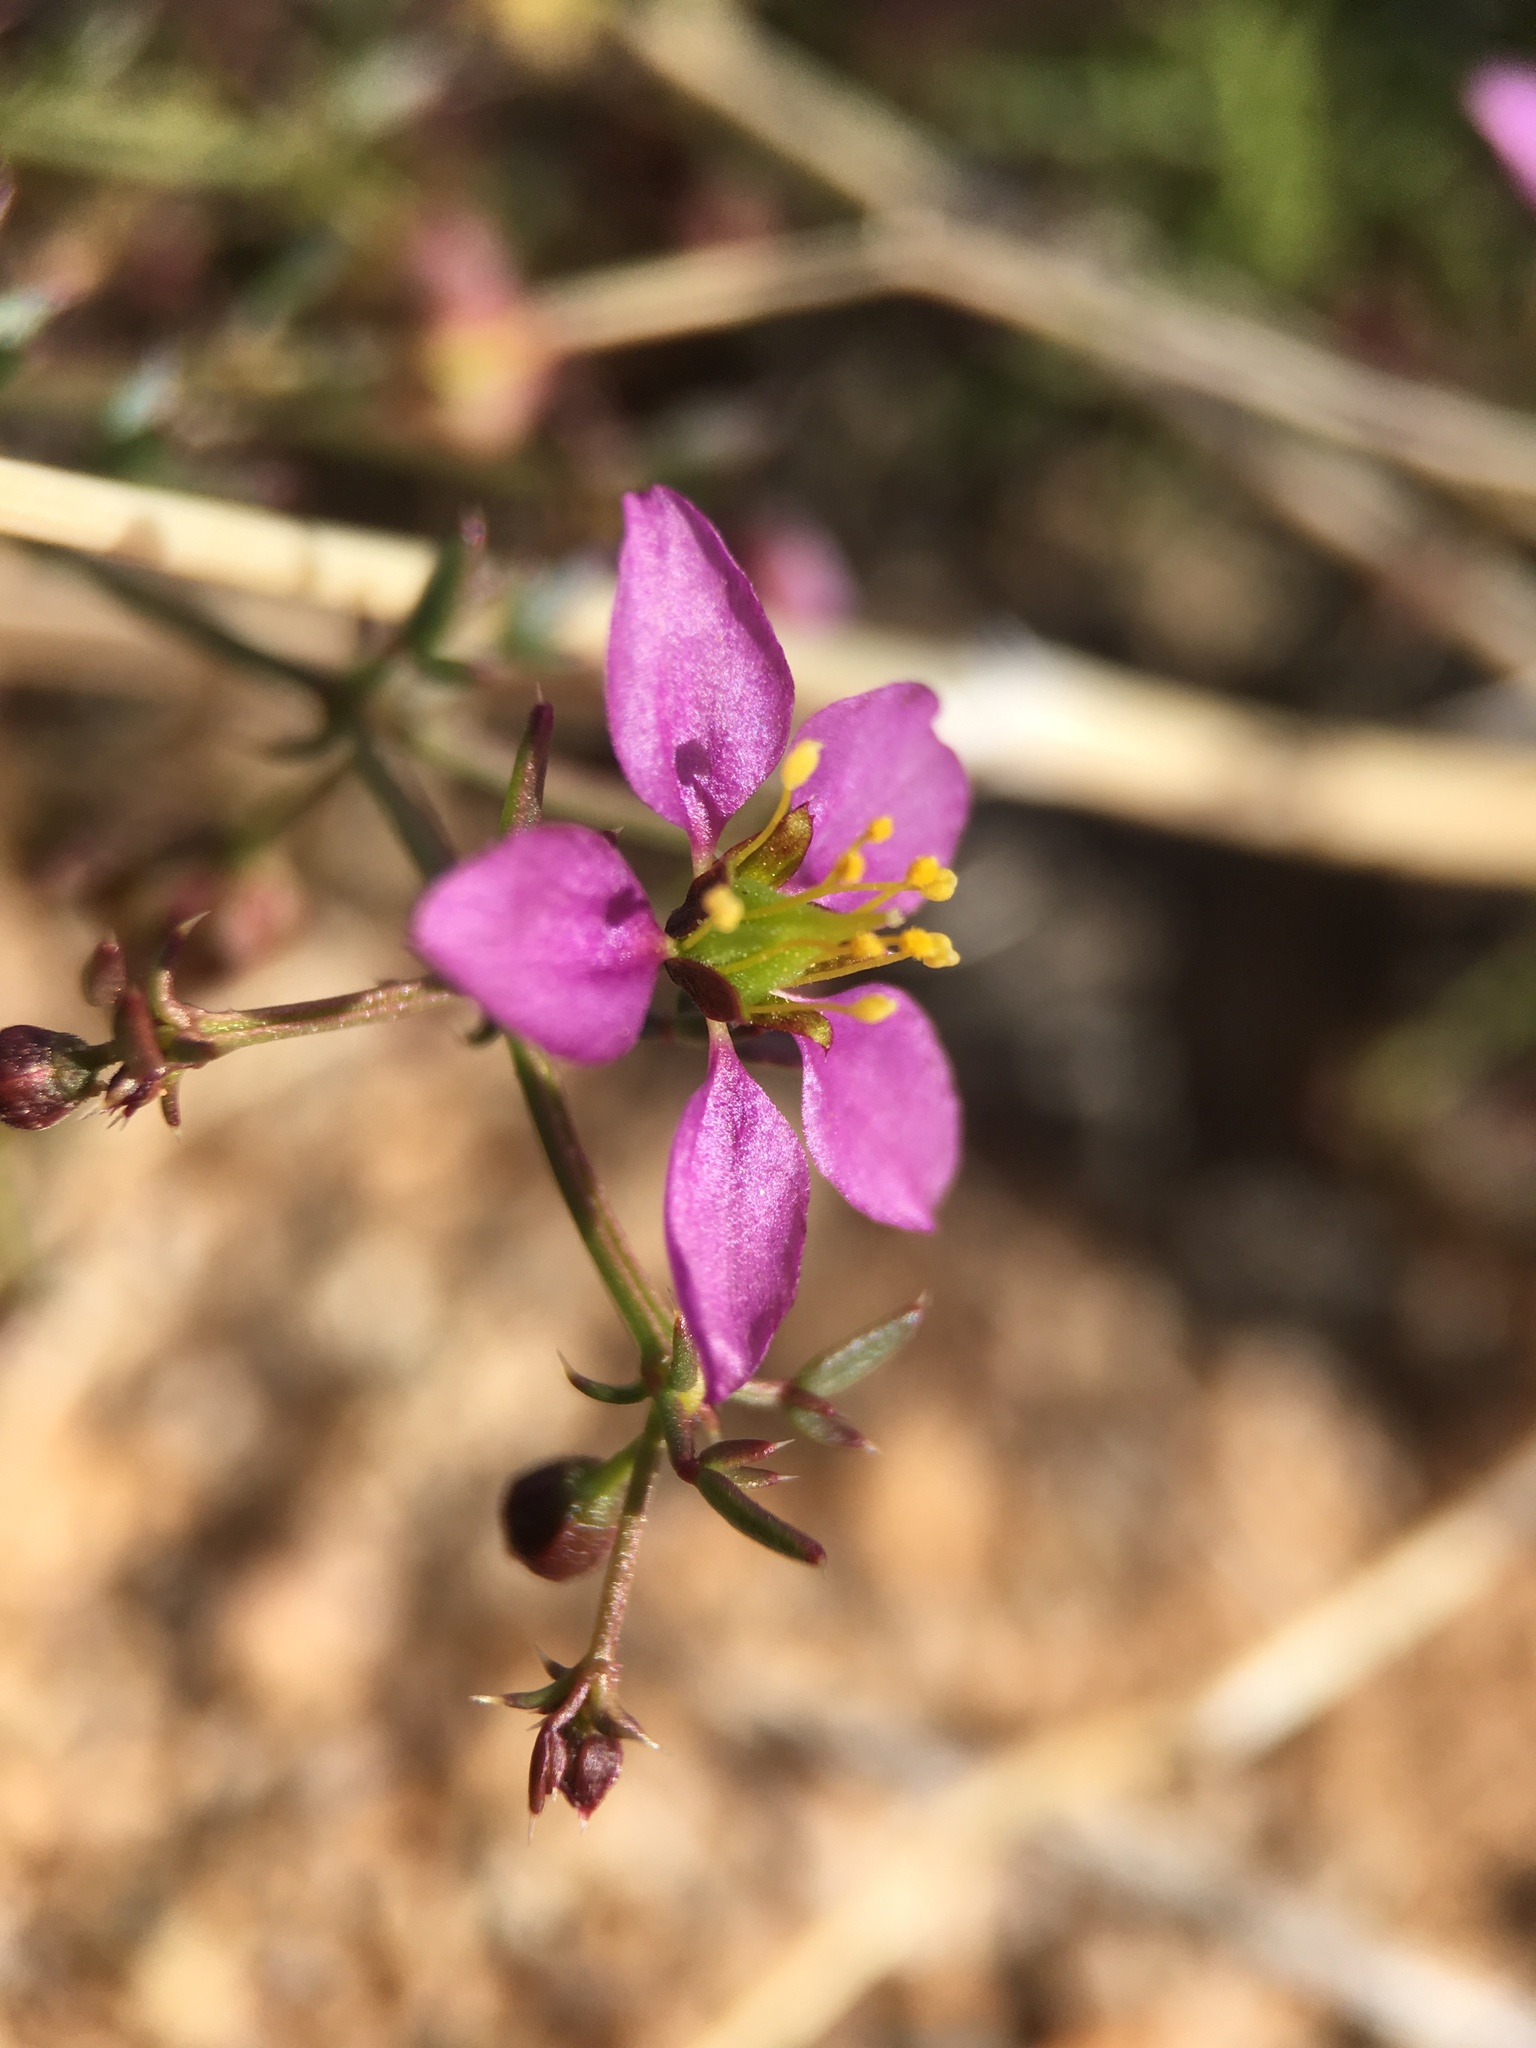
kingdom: Plantae
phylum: Tracheophyta
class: Magnoliopsida
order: Zygophyllales
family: Zygophyllaceae
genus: Fagonia
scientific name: Fagonia laevis
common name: California fagonbush
